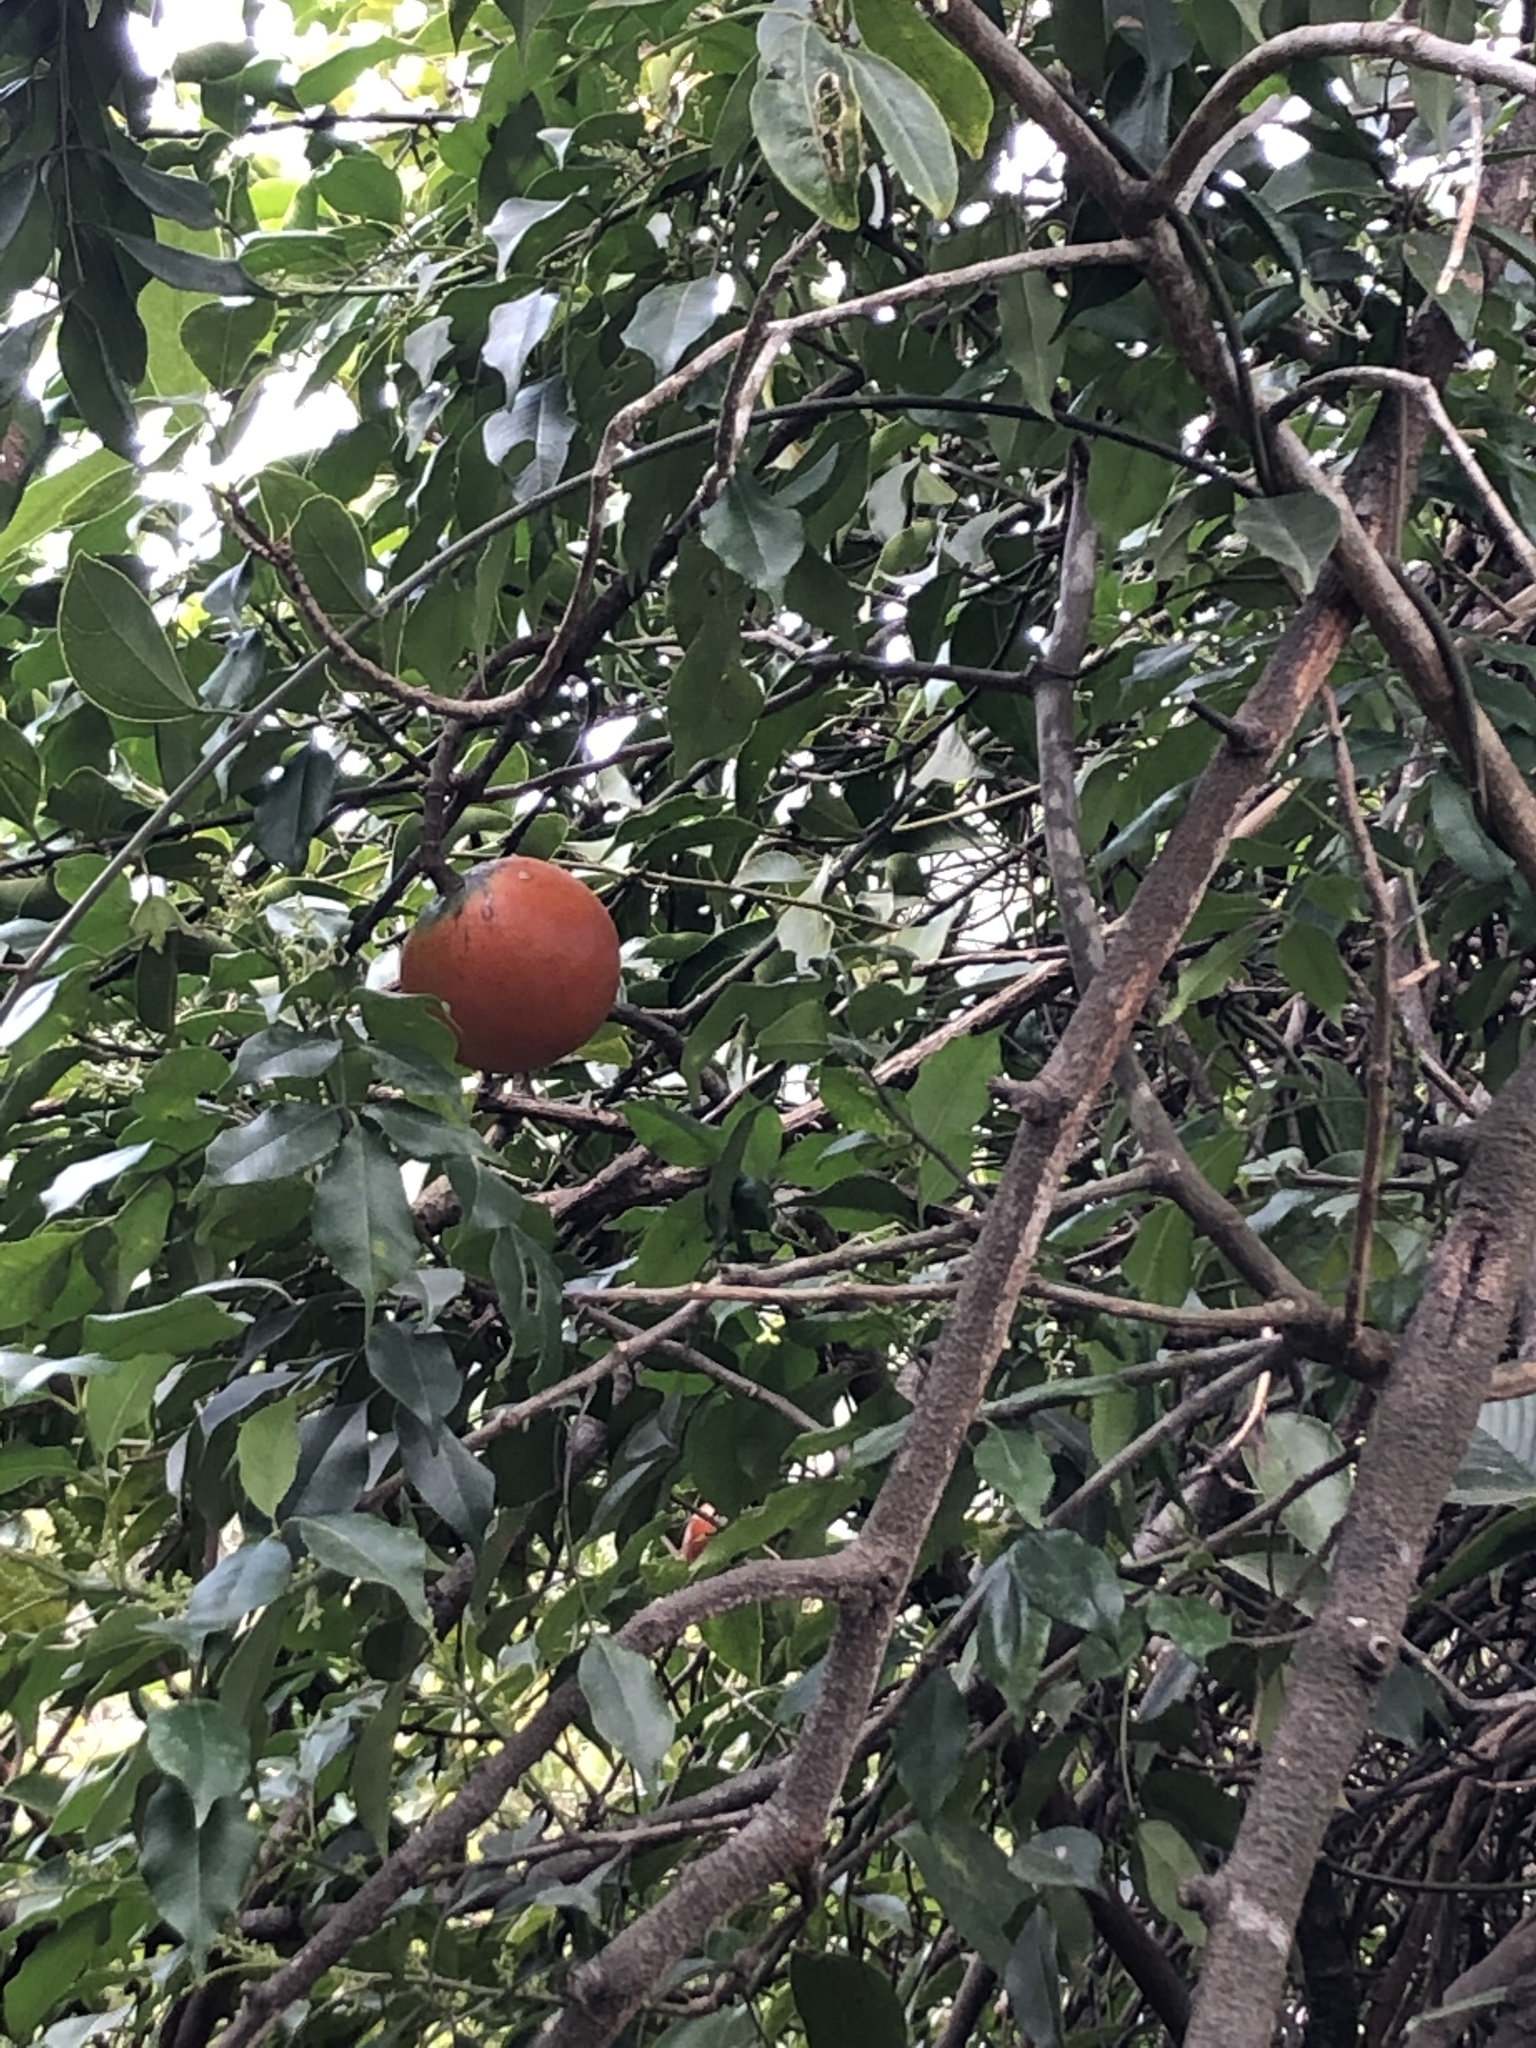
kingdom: Plantae
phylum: Tracheophyta
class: Magnoliopsida
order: Gentianales
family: Apocynaceae
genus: Melodinus
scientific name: Melodinus suaveolens
